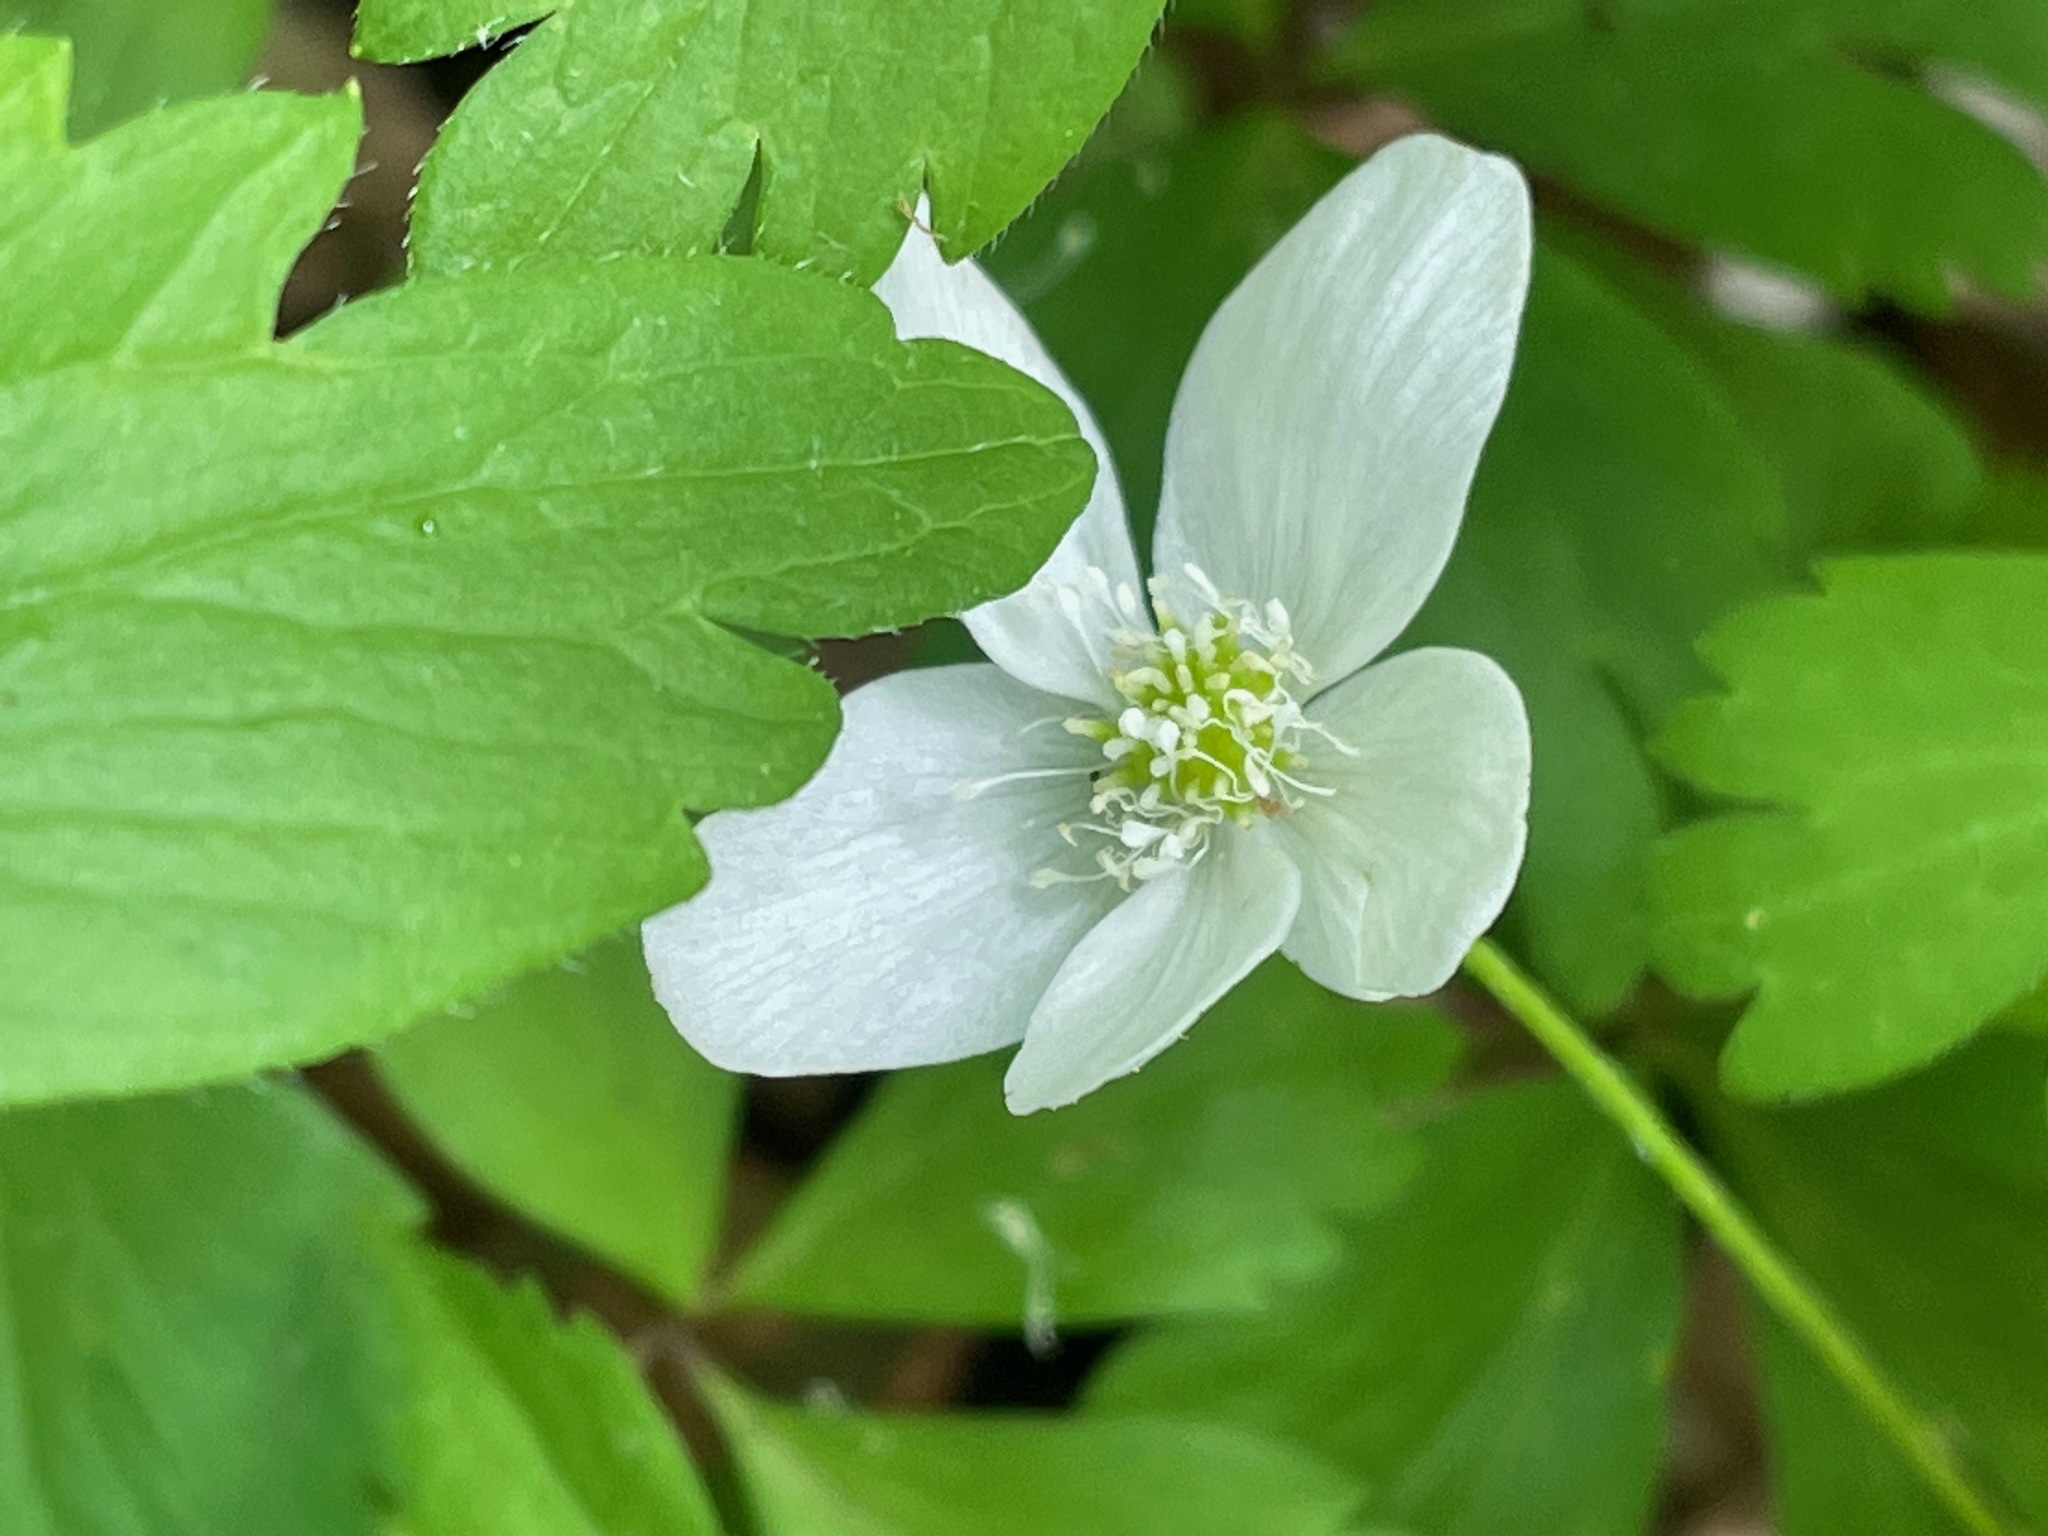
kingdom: Plantae
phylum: Tracheophyta
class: Magnoliopsida
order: Ranunculales
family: Ranunculaceae
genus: Anemone
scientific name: Anemone quinquefolia
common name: Wood anemone
